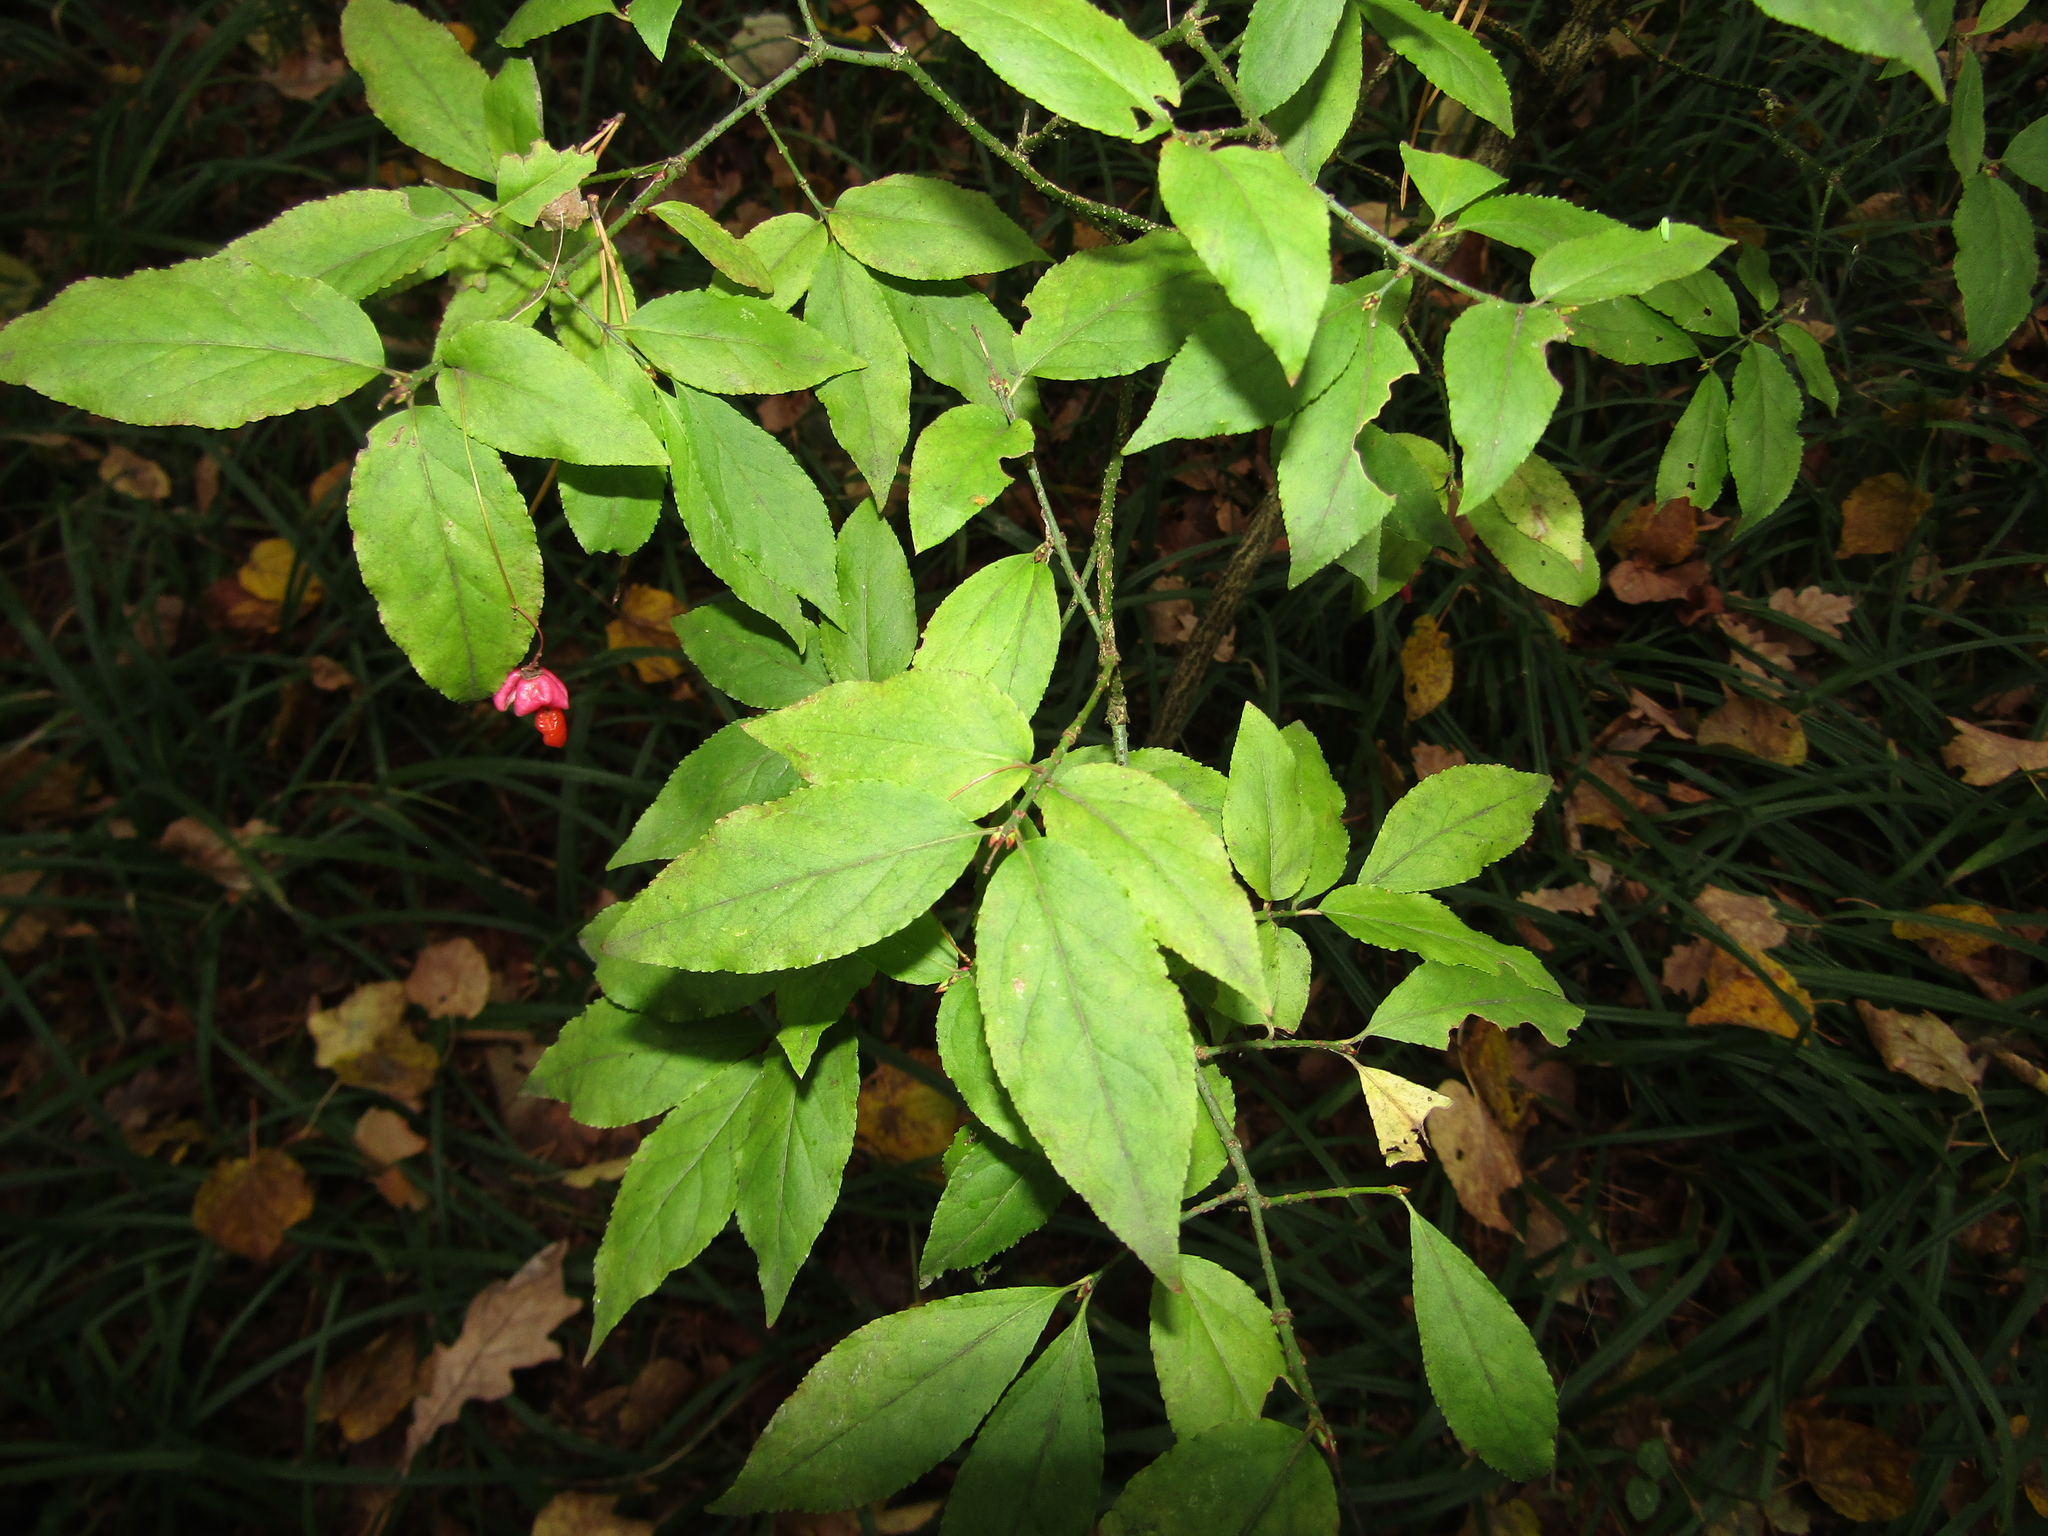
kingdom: Plantae
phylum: Tracheophyta
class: Magnoliopsida
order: Celastrales
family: Celastraceae
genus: Euonymus
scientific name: Euonymus verrucosus
